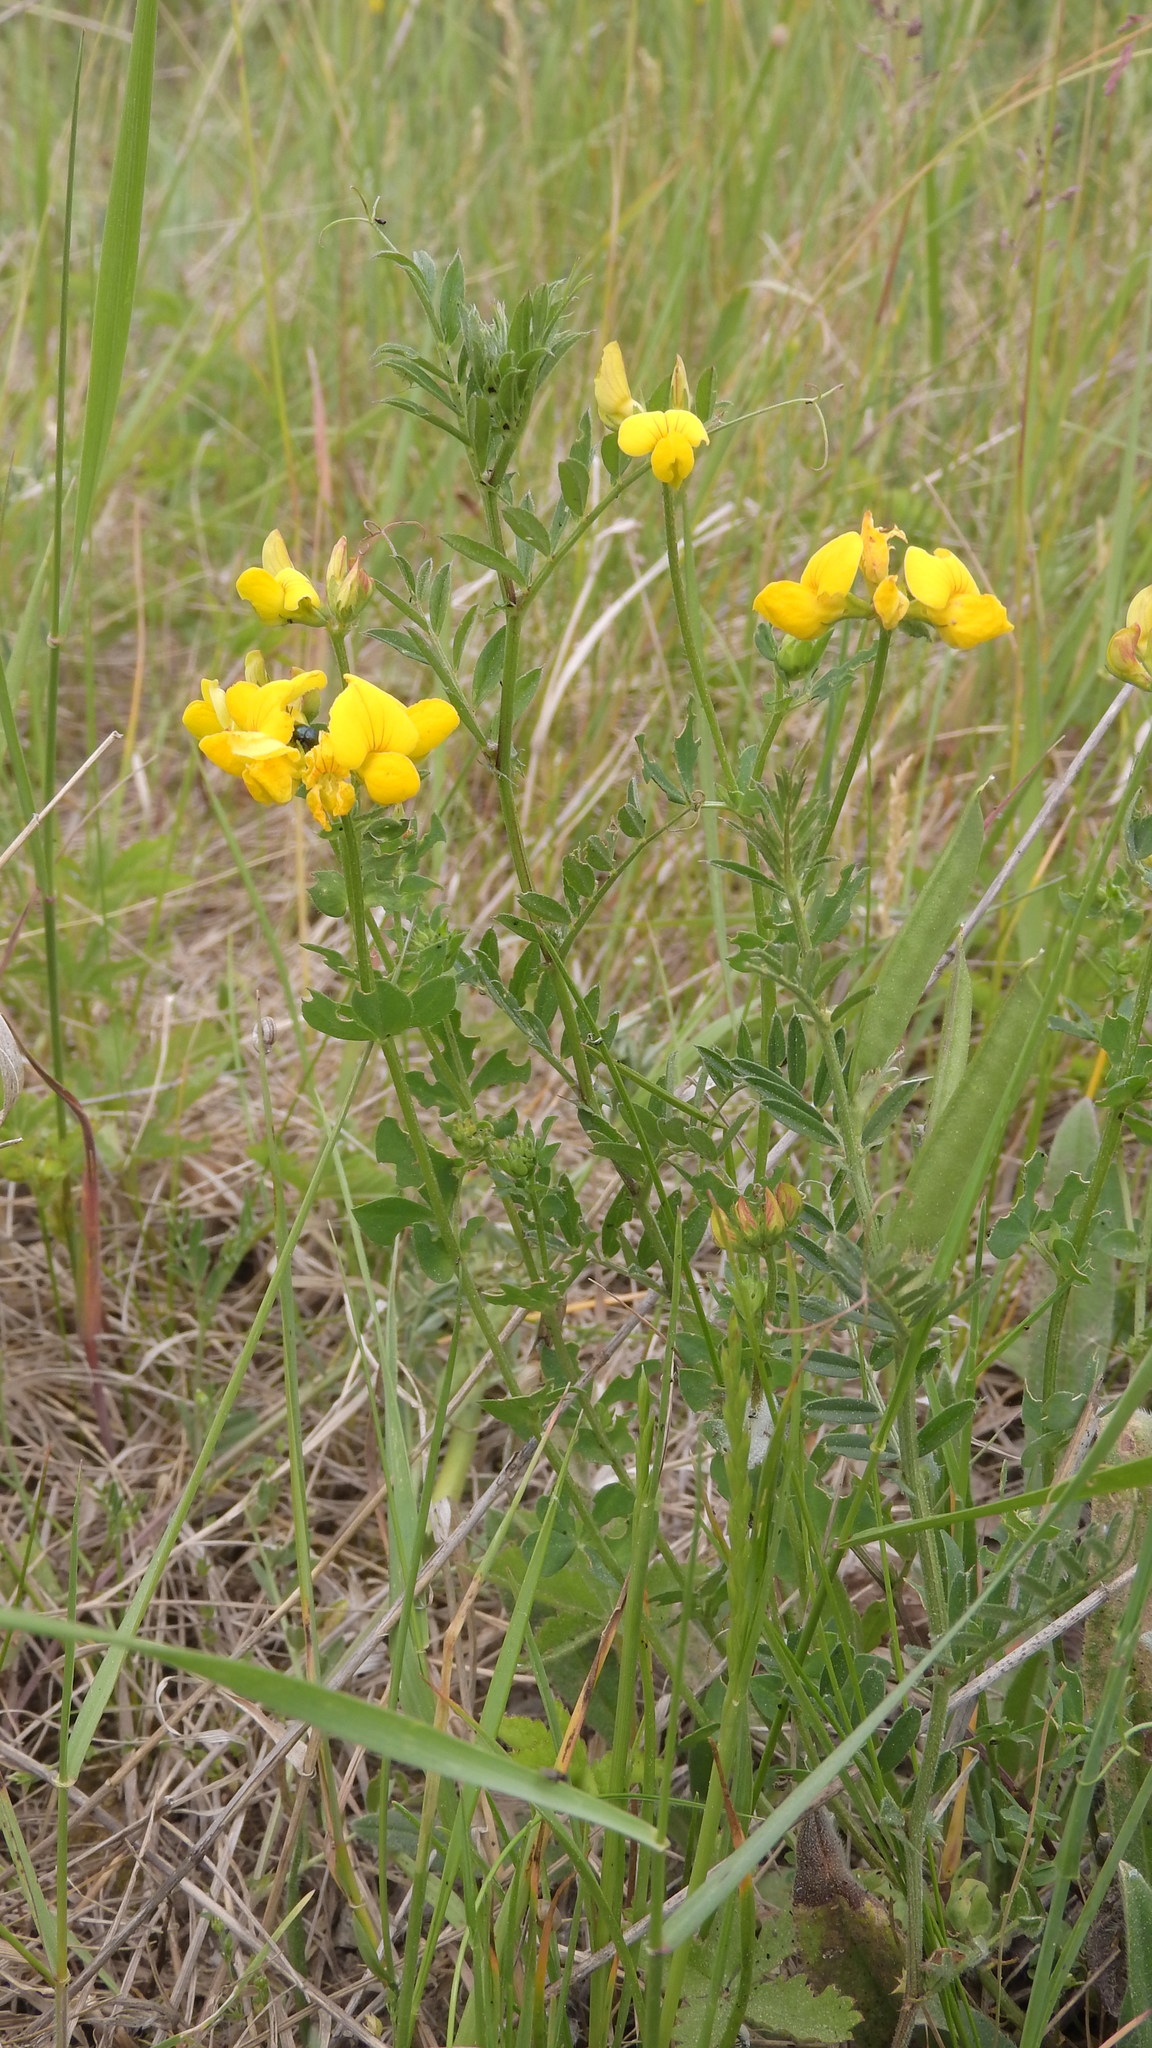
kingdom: Plantae
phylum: Tracheophyta
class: Magnoliopsida
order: Fabales
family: Fabaceae
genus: Lotus
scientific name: Lotus corniculatus
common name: Common bird's-foot-trefoil
